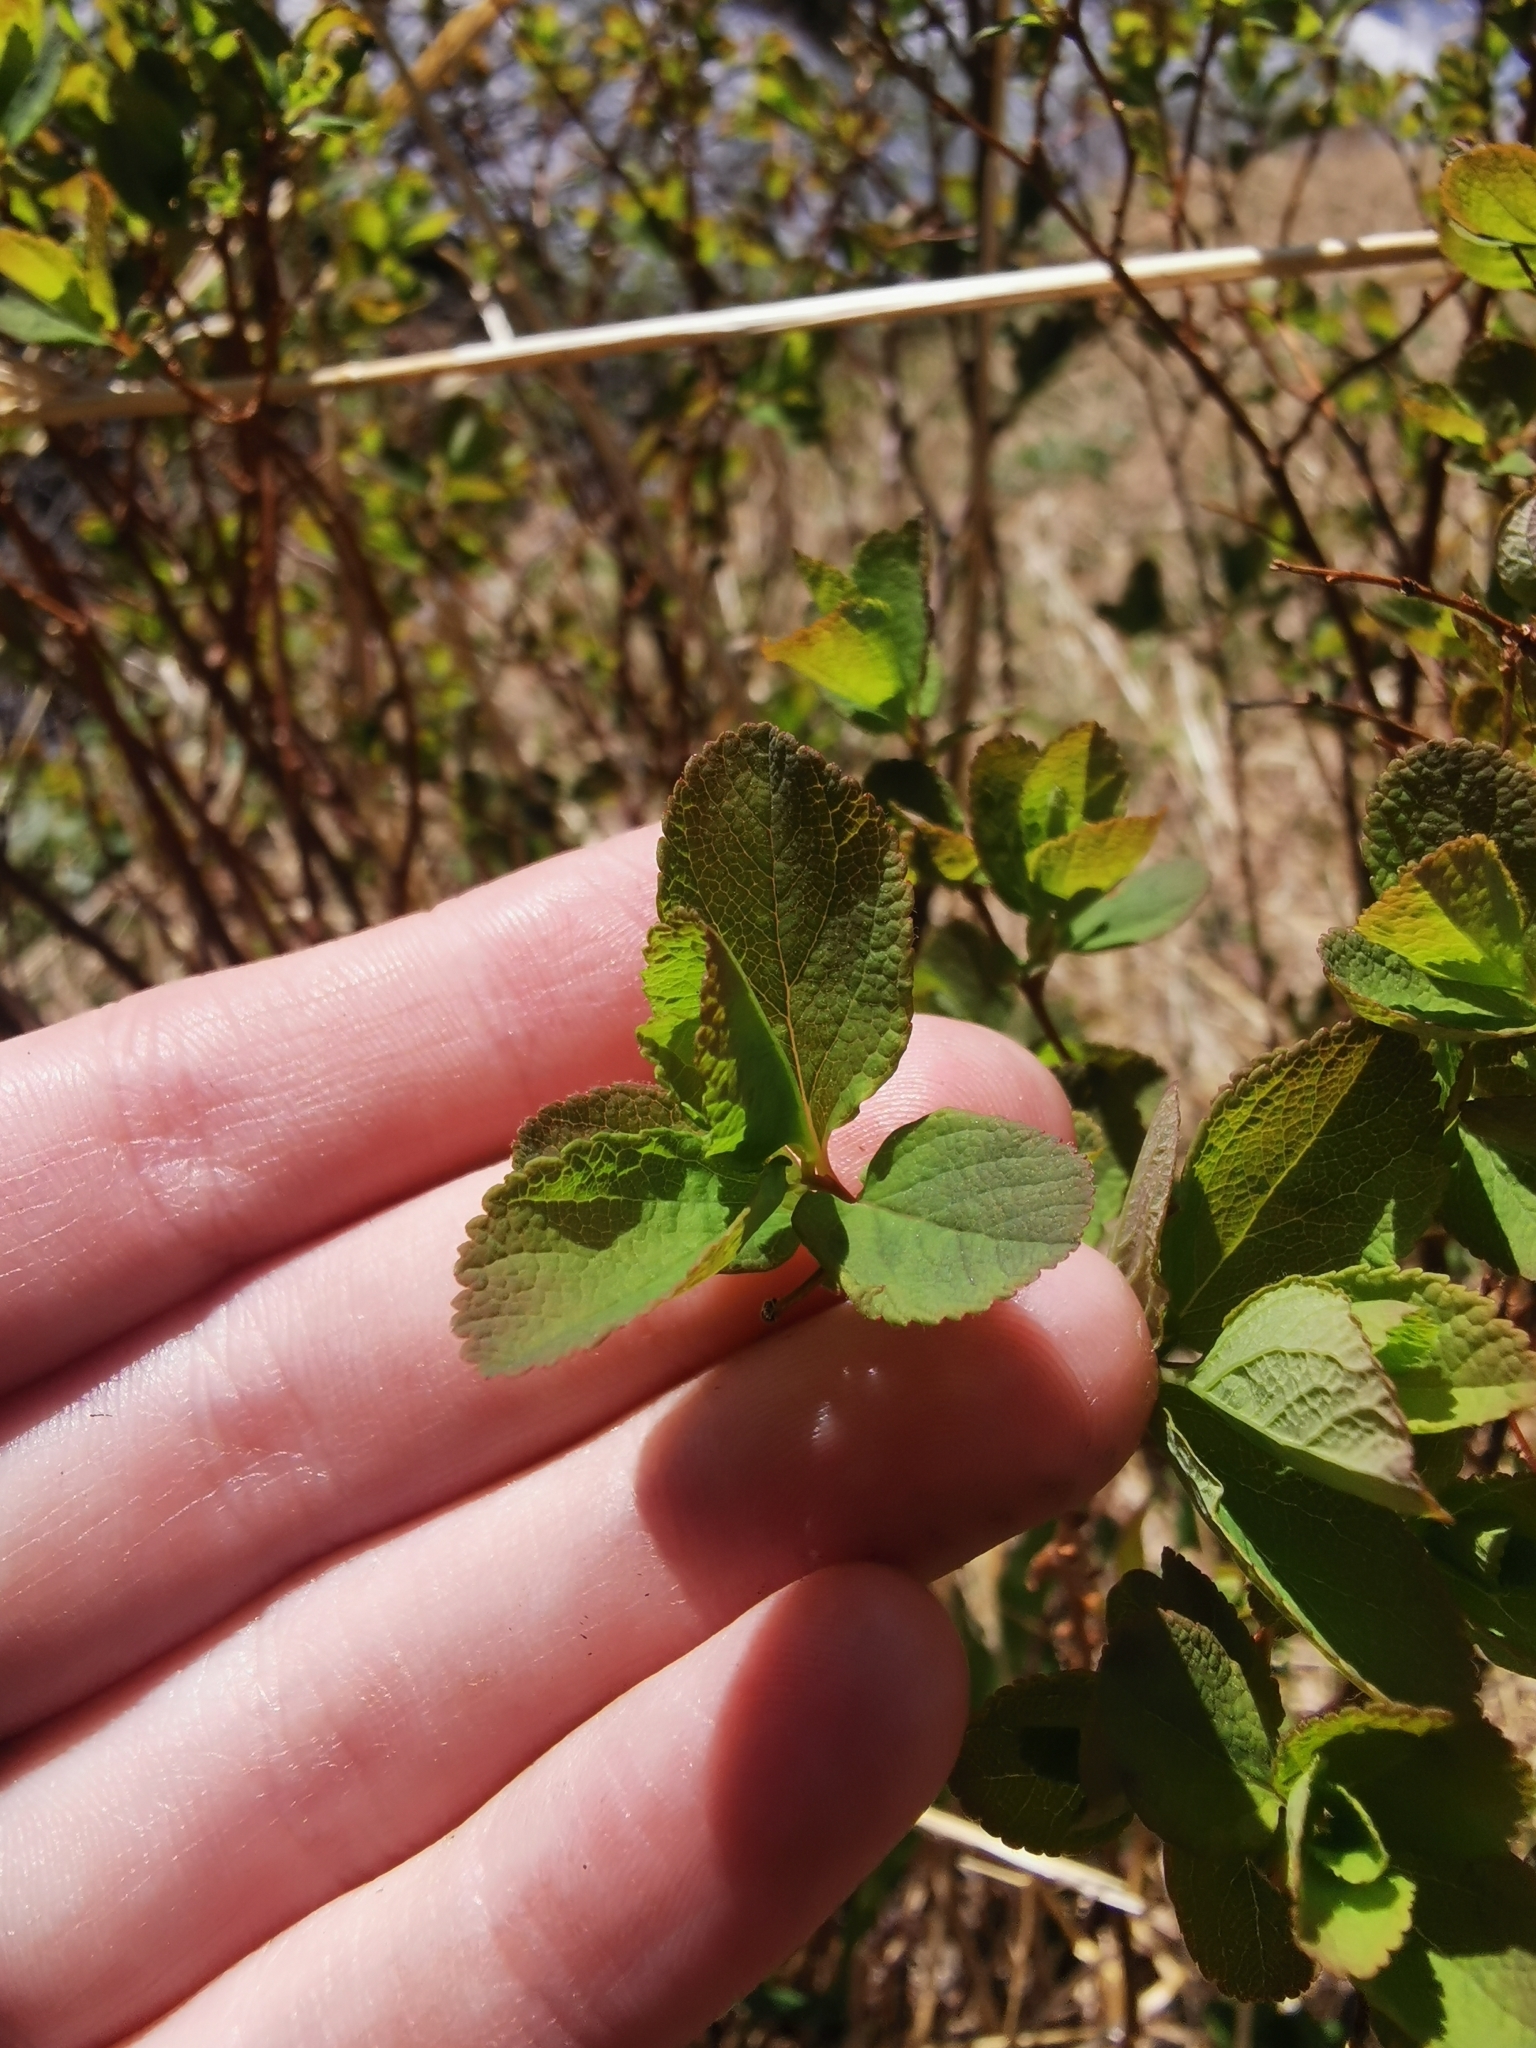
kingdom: Plantae
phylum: Tracheophyta
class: Magnoliopsida
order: Rosales
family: Rosaceae
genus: Spiraea
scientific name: Spiraea betulifolia
